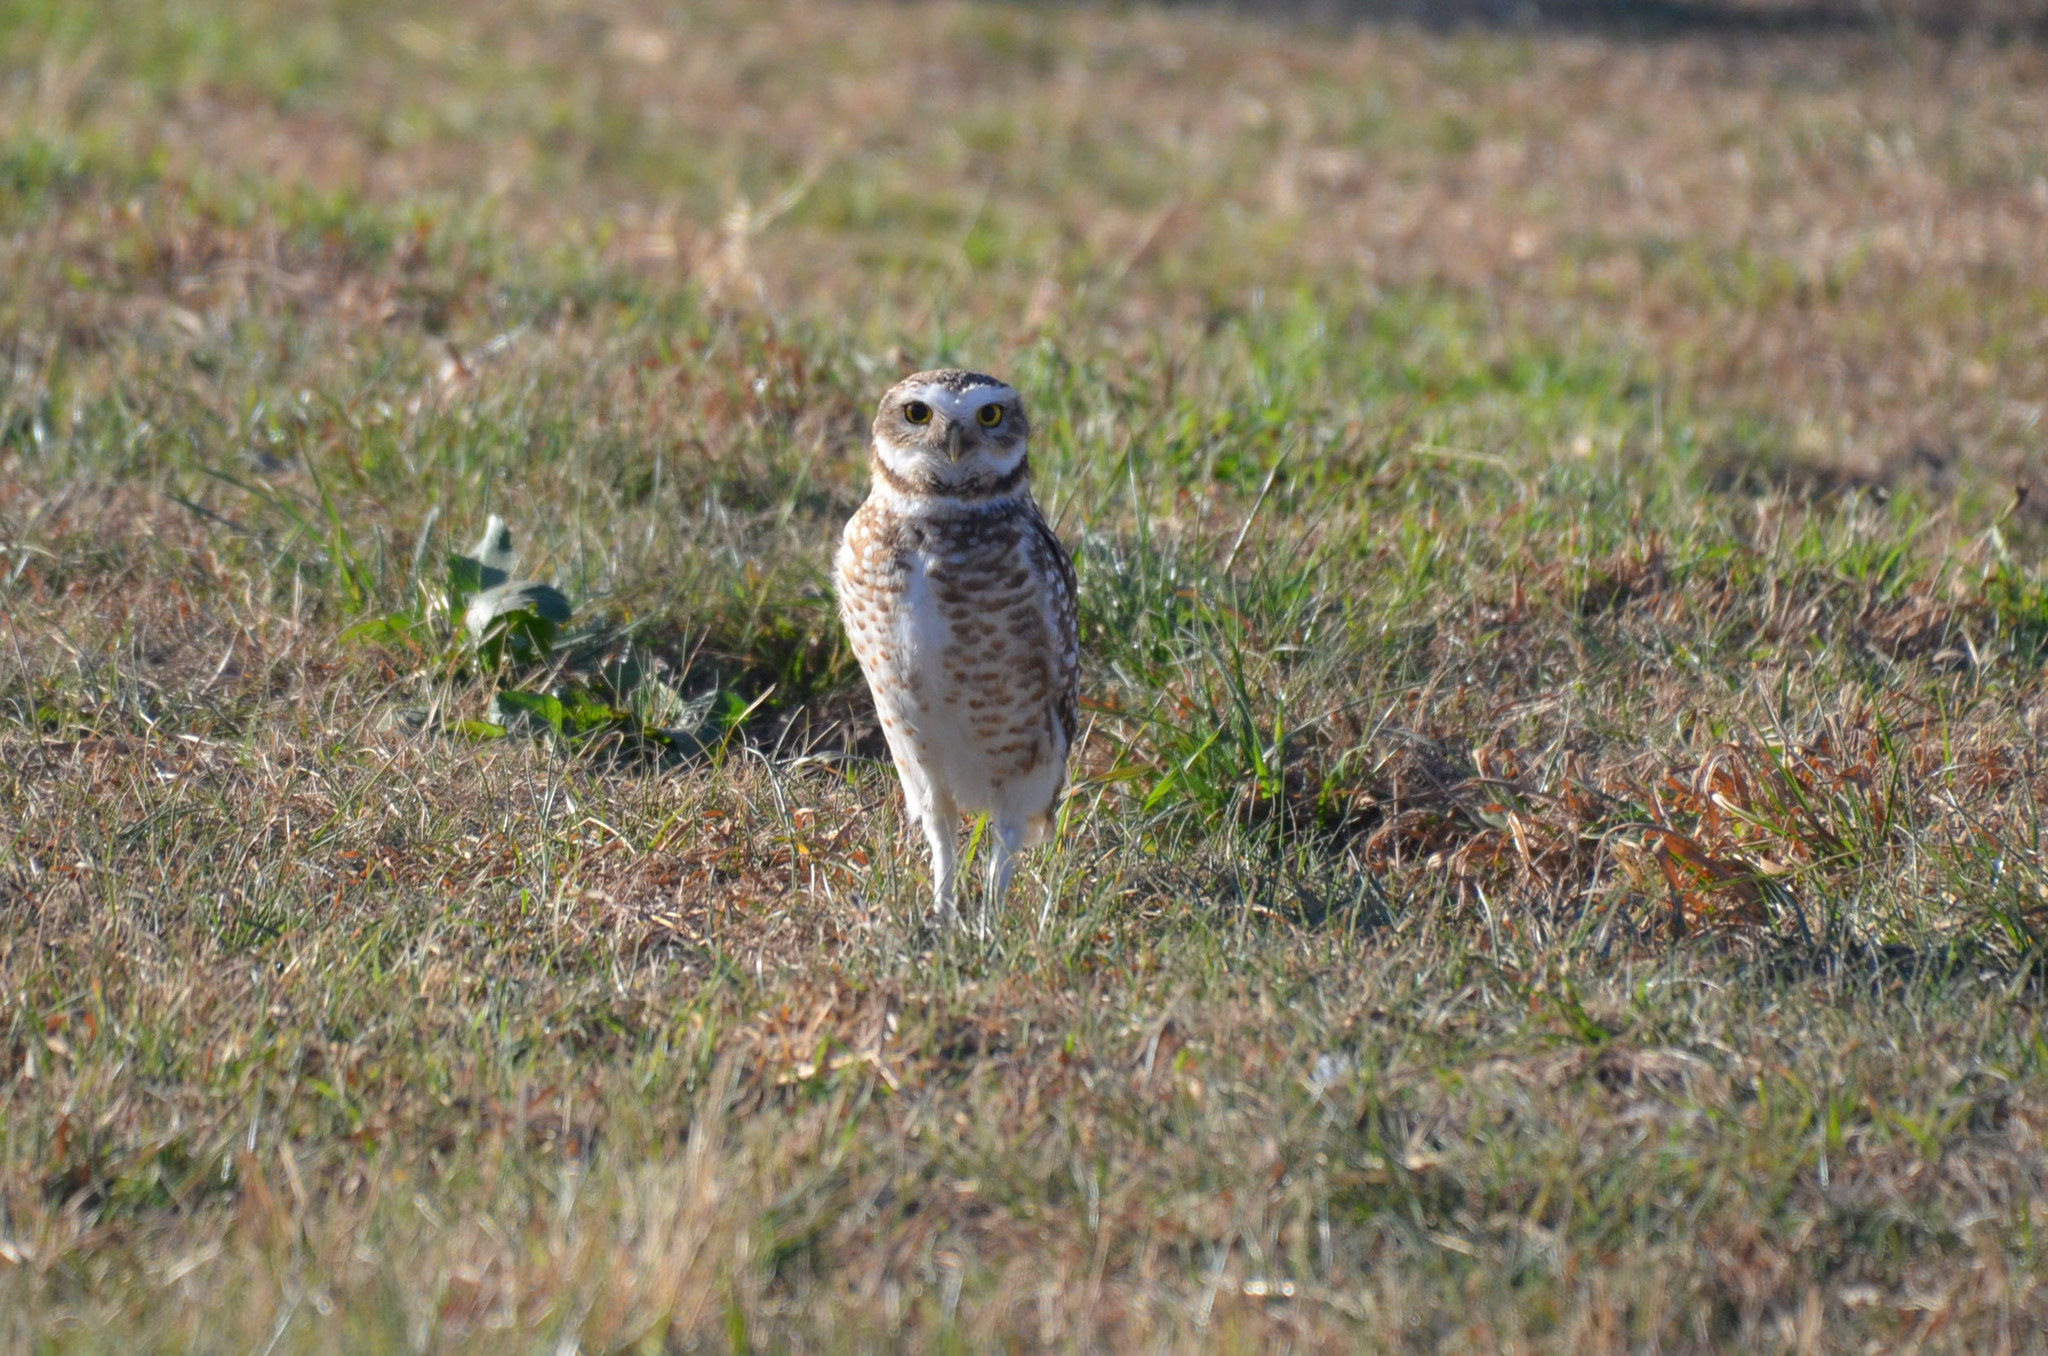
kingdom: Animalia
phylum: Chordata
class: Aves
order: Strigiformes
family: Strigidae
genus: Athene
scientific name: Athene cunicularia
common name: Burrowing owl
